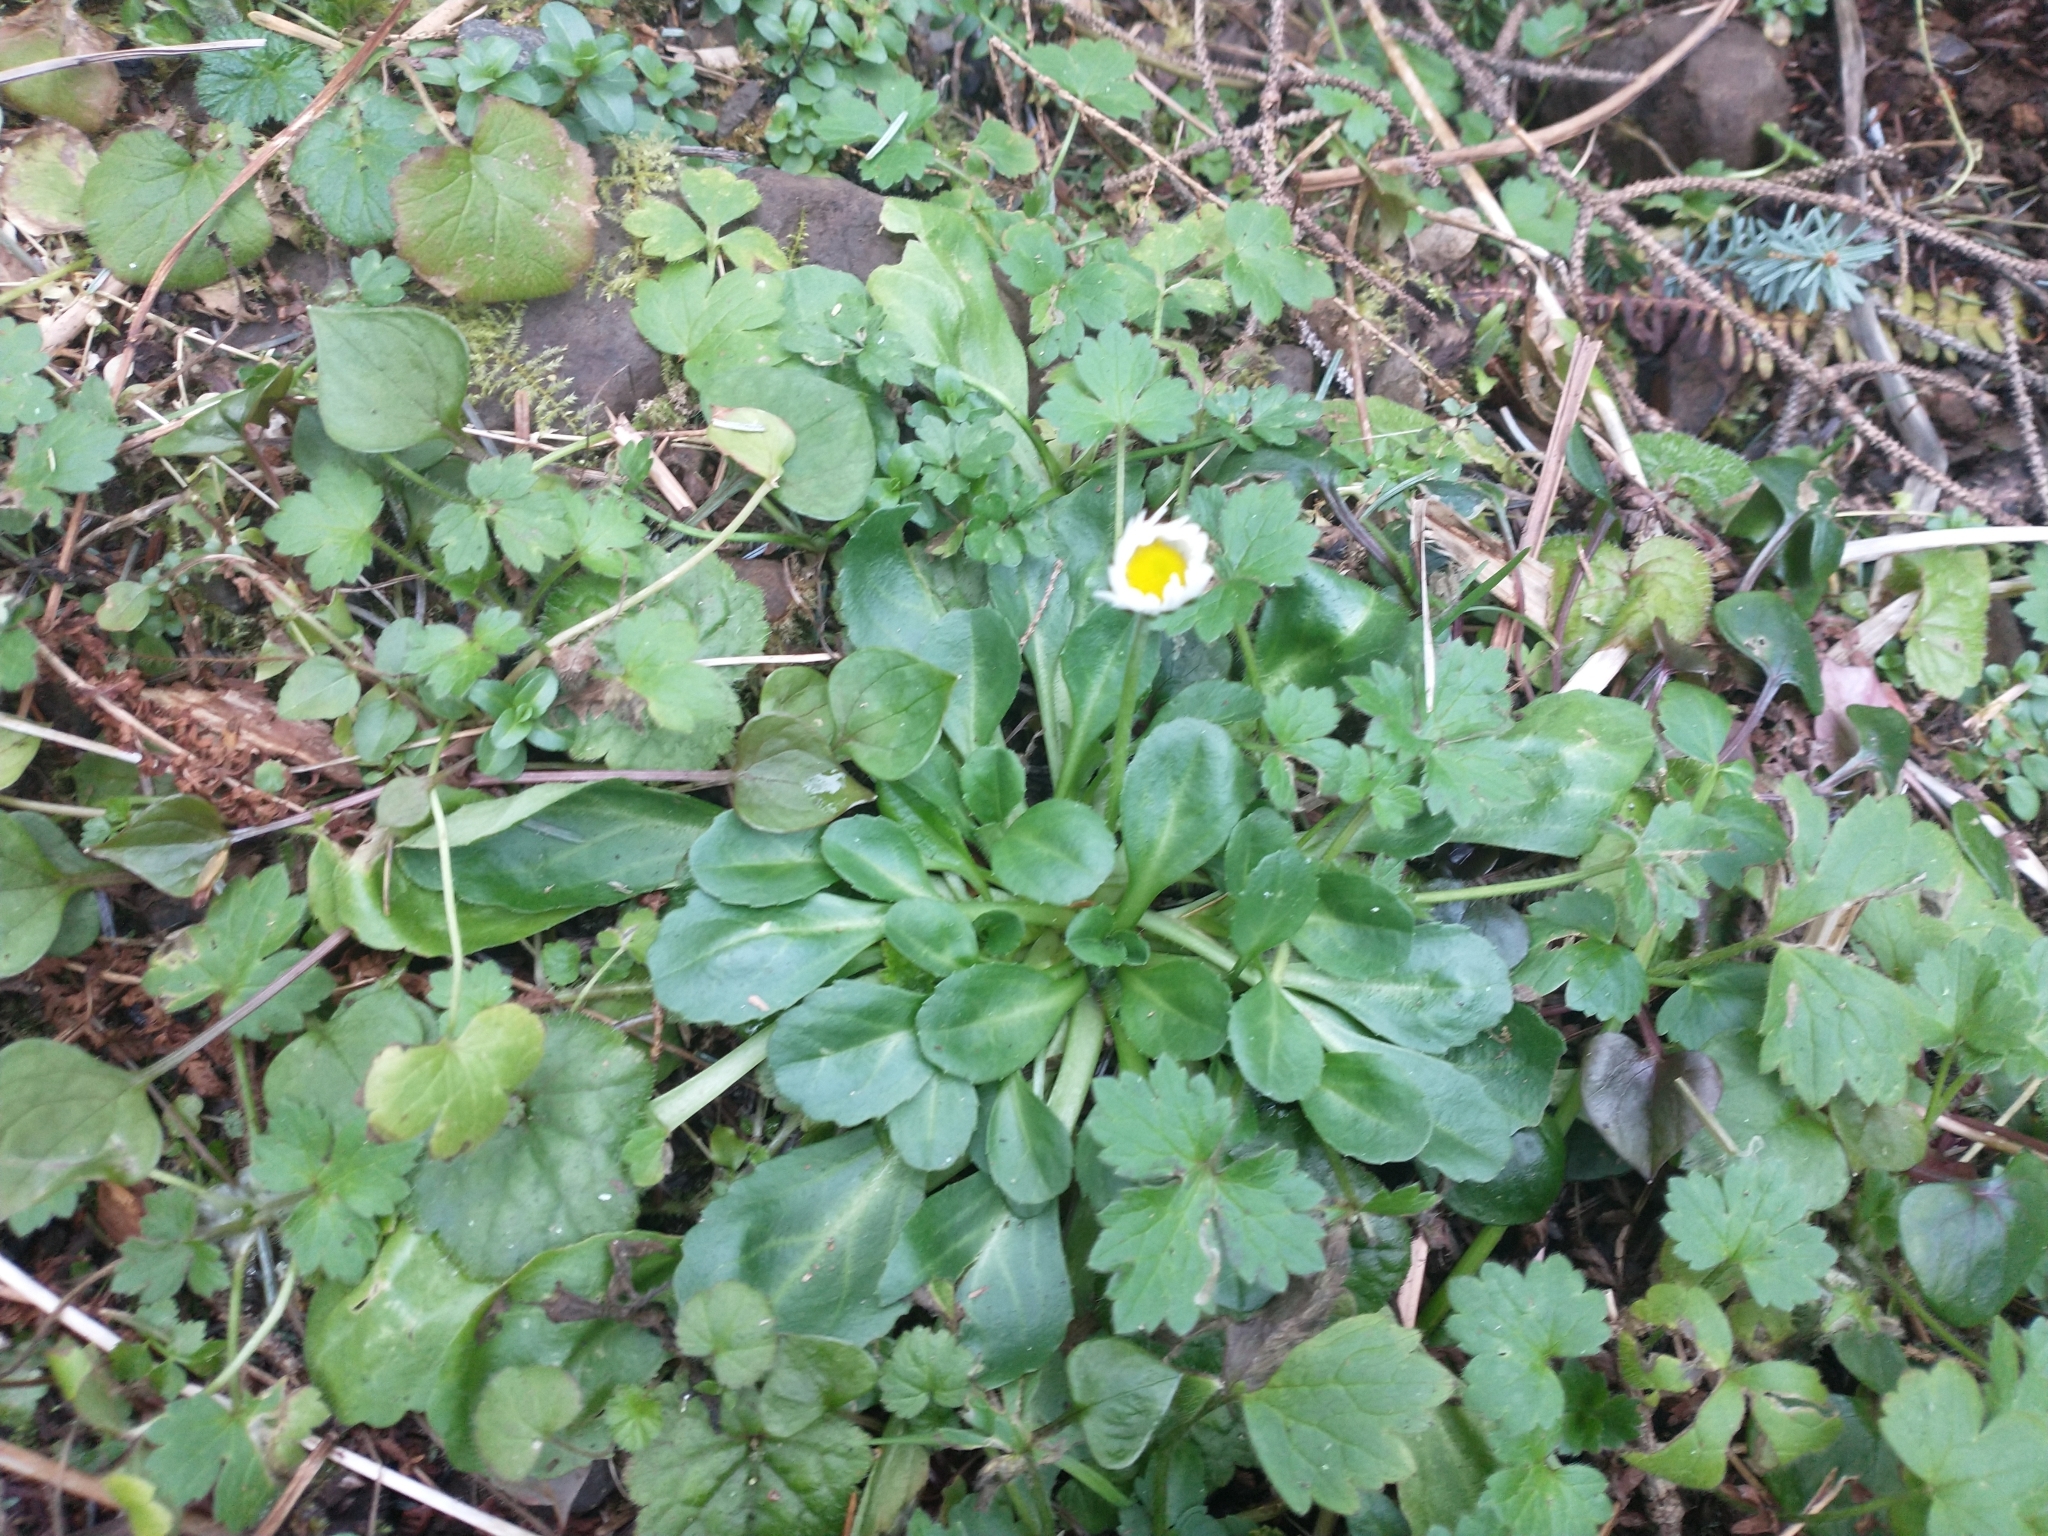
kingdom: Plantae
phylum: Tracheophyta
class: Magnoliopsida
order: Asterales
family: Asteraceae
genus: Bellis
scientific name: Bellis perennis
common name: Lawndaisy
